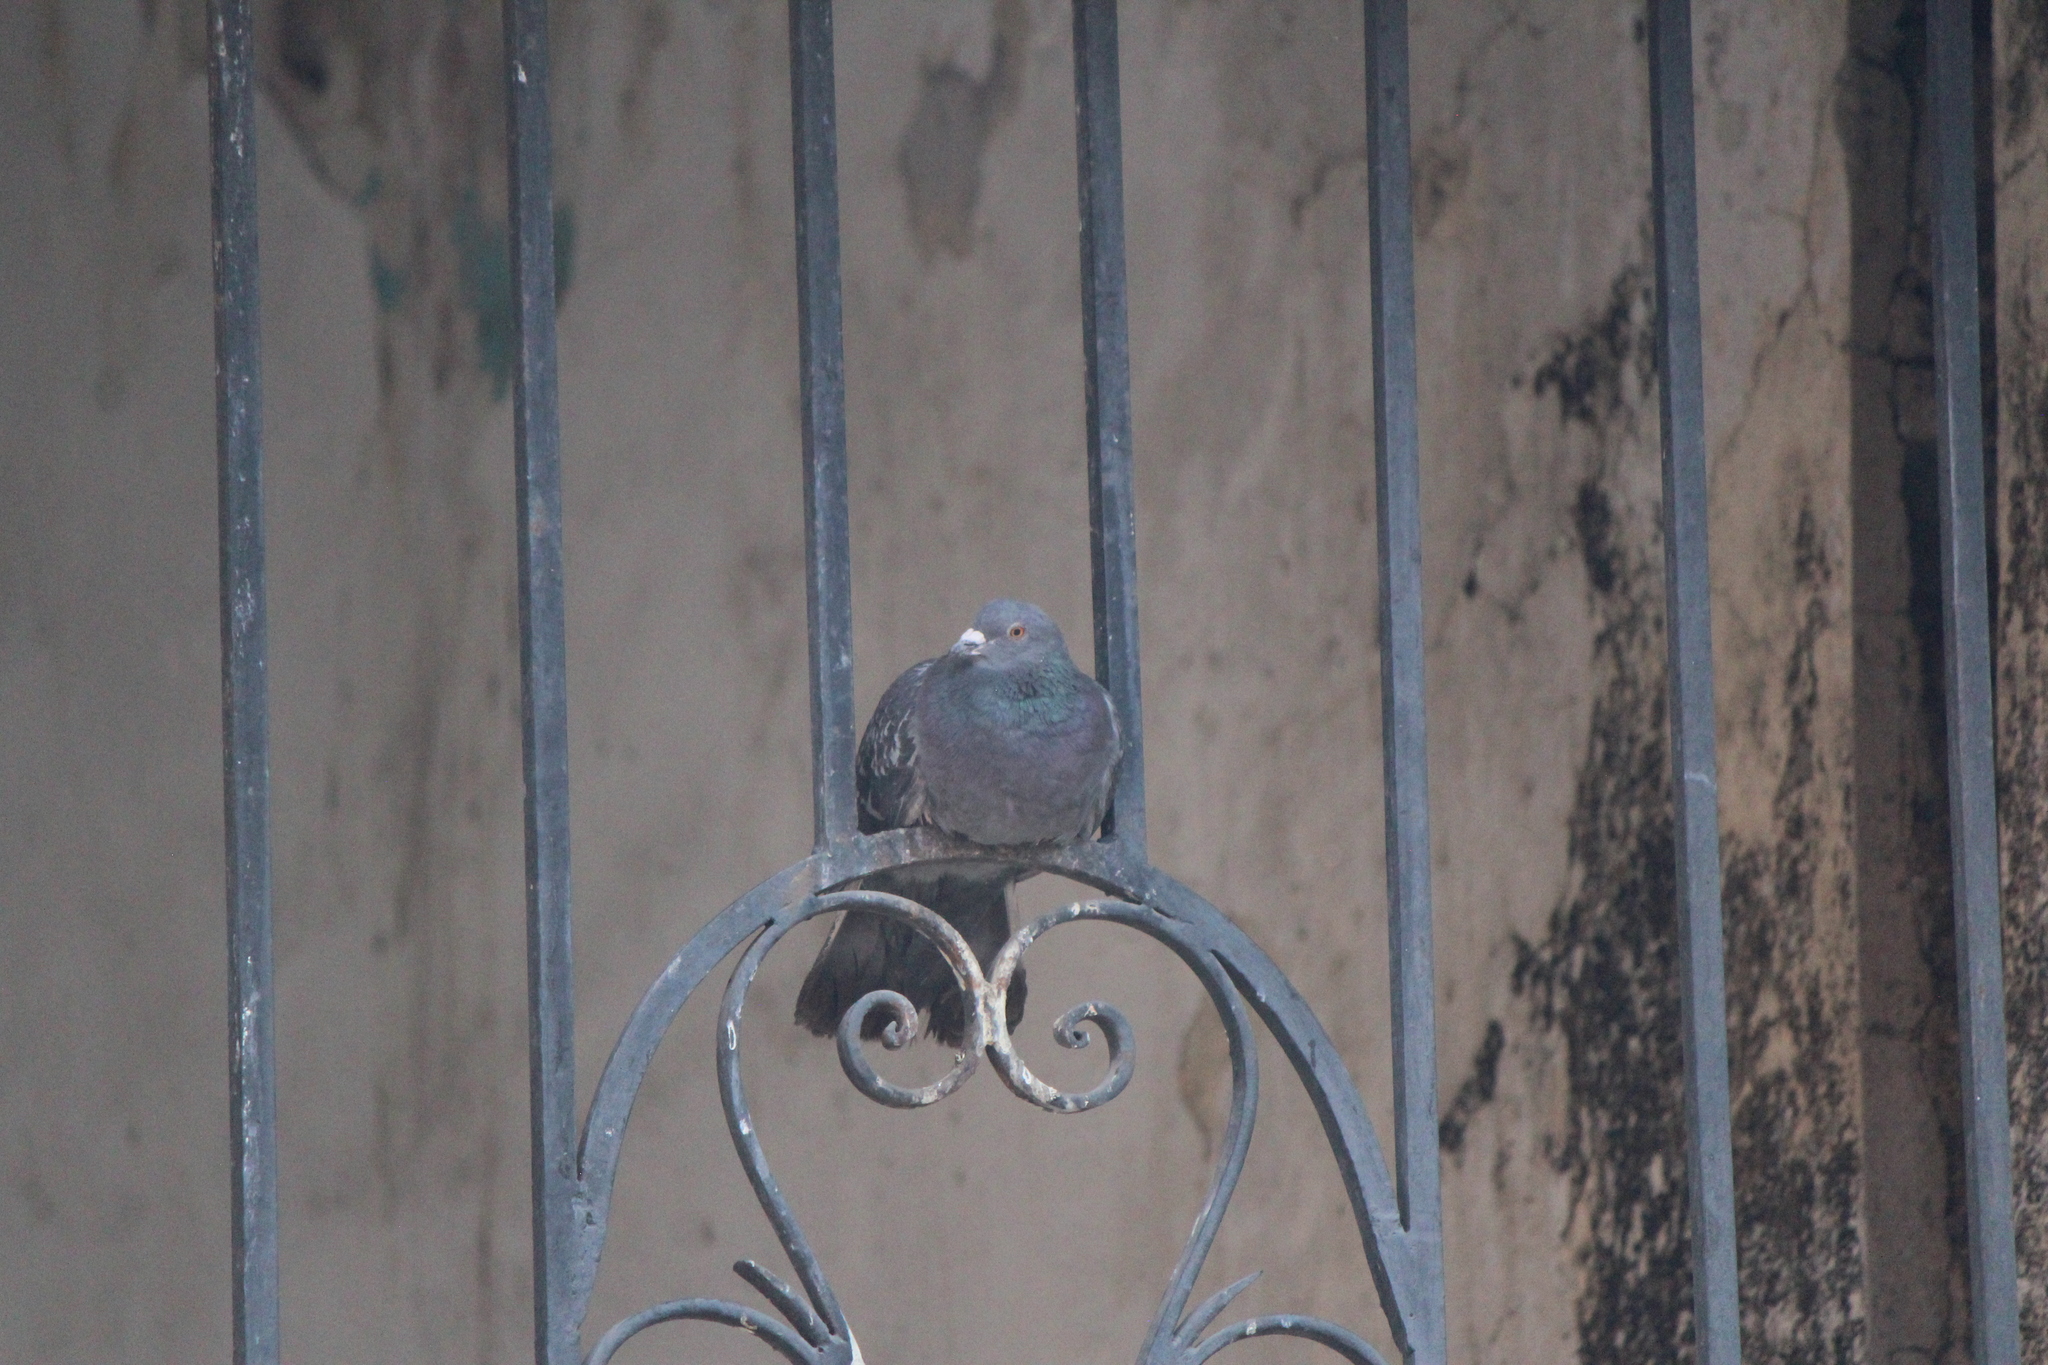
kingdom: Animalia
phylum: Chordata
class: Aves
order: Columbiformes
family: Columbidae
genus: Columba
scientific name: Columba livia
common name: Rock pigeon
